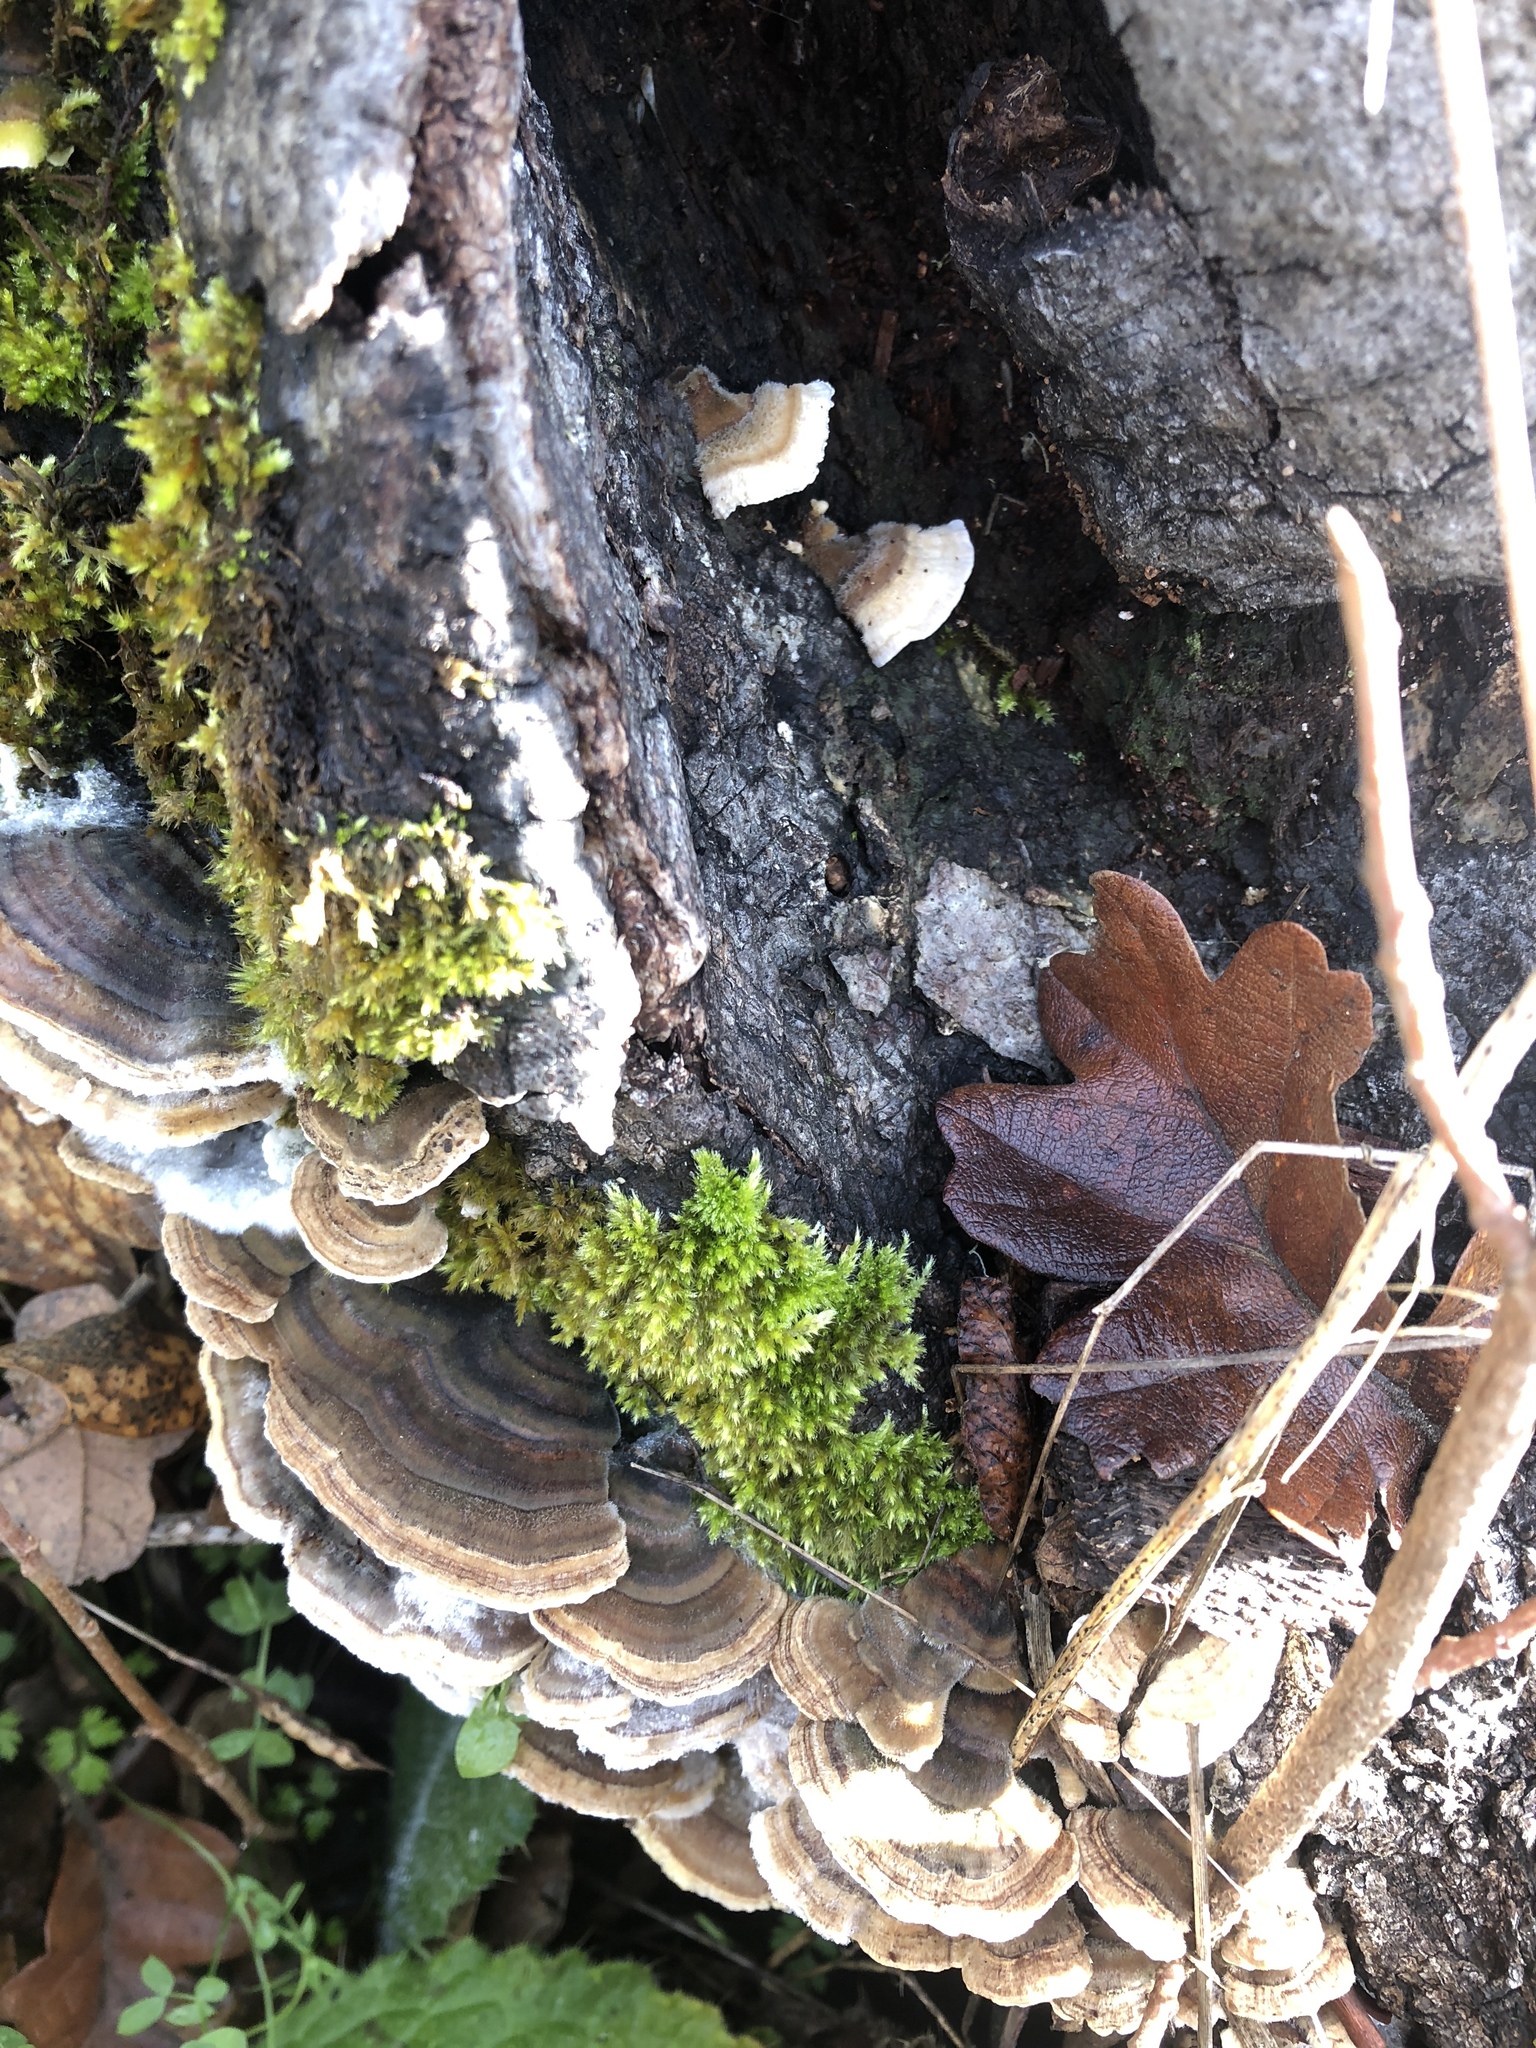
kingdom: Fungi
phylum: Basidiomycota
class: Agaricomycetes
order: Polyporales
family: Polyporaceae
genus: Trametes
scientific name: Trametes versicolor
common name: Turkeytail
